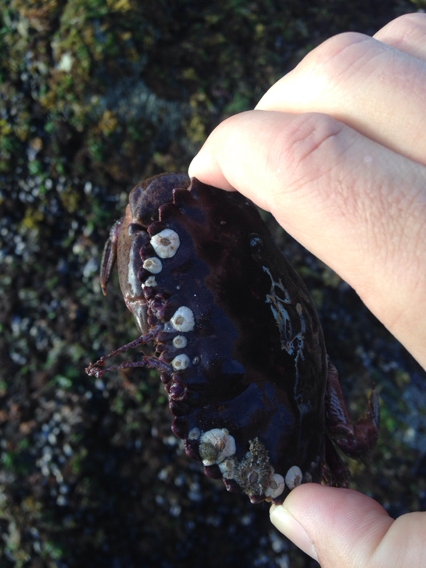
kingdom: Animalia
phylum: Arthropoda
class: Malacostraca
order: Decapoda
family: Cancridae
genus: Romaleon
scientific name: Romaleon antennarium
